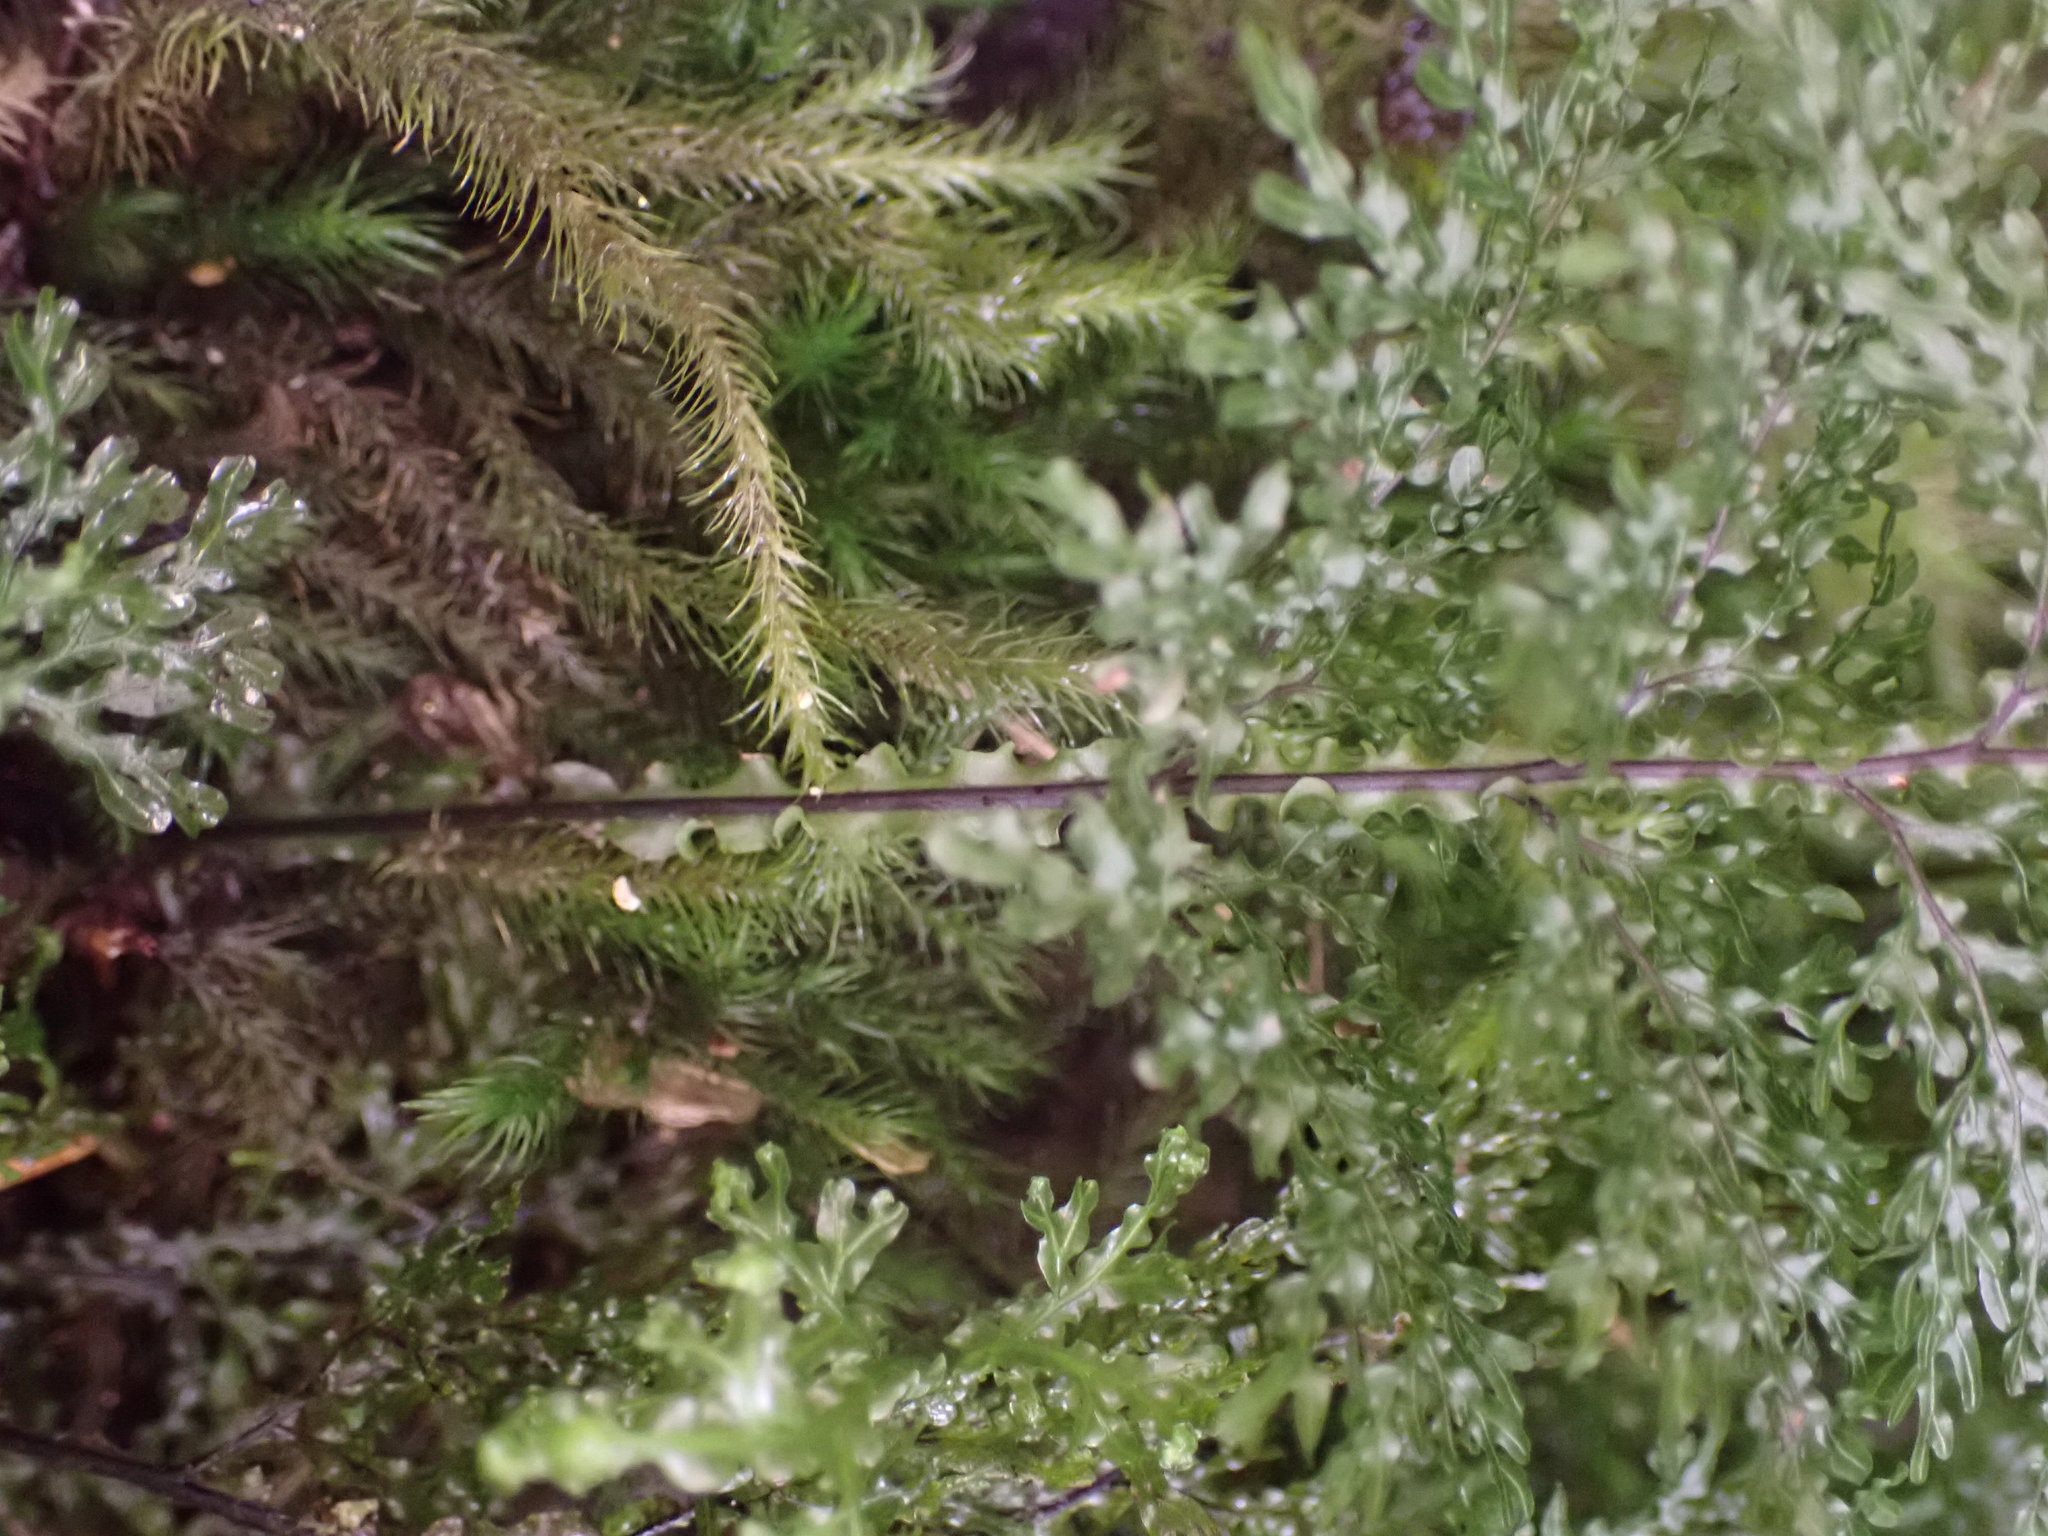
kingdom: Plantae
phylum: Tracheophyta
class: Polypodiopsida
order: Hymenophyllales
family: Hymenophyllaceae
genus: Hymenophyllum
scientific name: Hymenophyllum flexuosum
